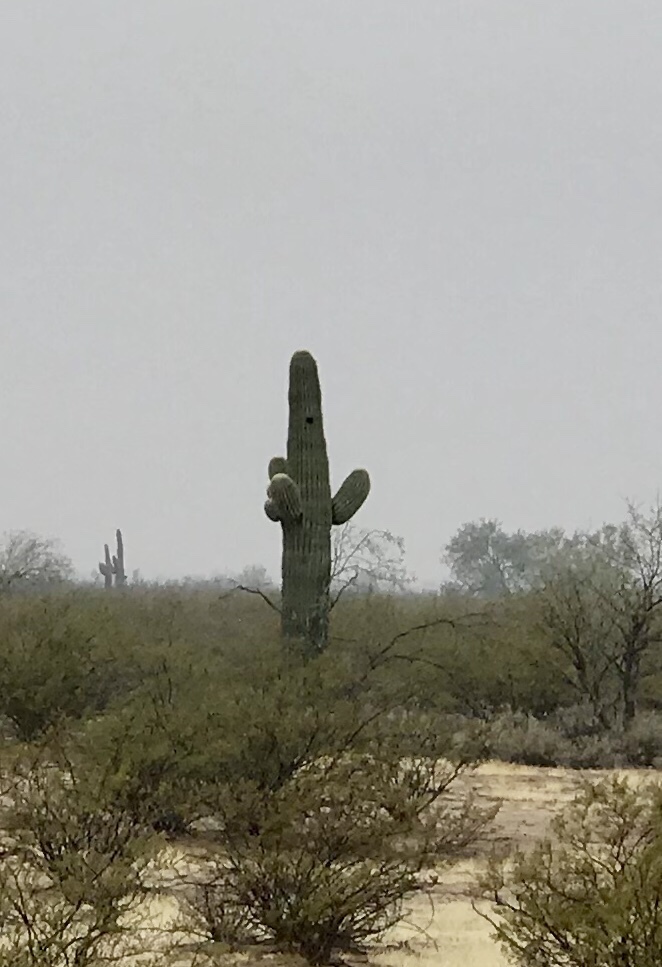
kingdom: Plantae
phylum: Tracheophyta
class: Magnoliopsida
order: Caryophyllales
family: Cactaceae
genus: Carnegiea
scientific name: Carnegiea gigantea
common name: Saguaro
